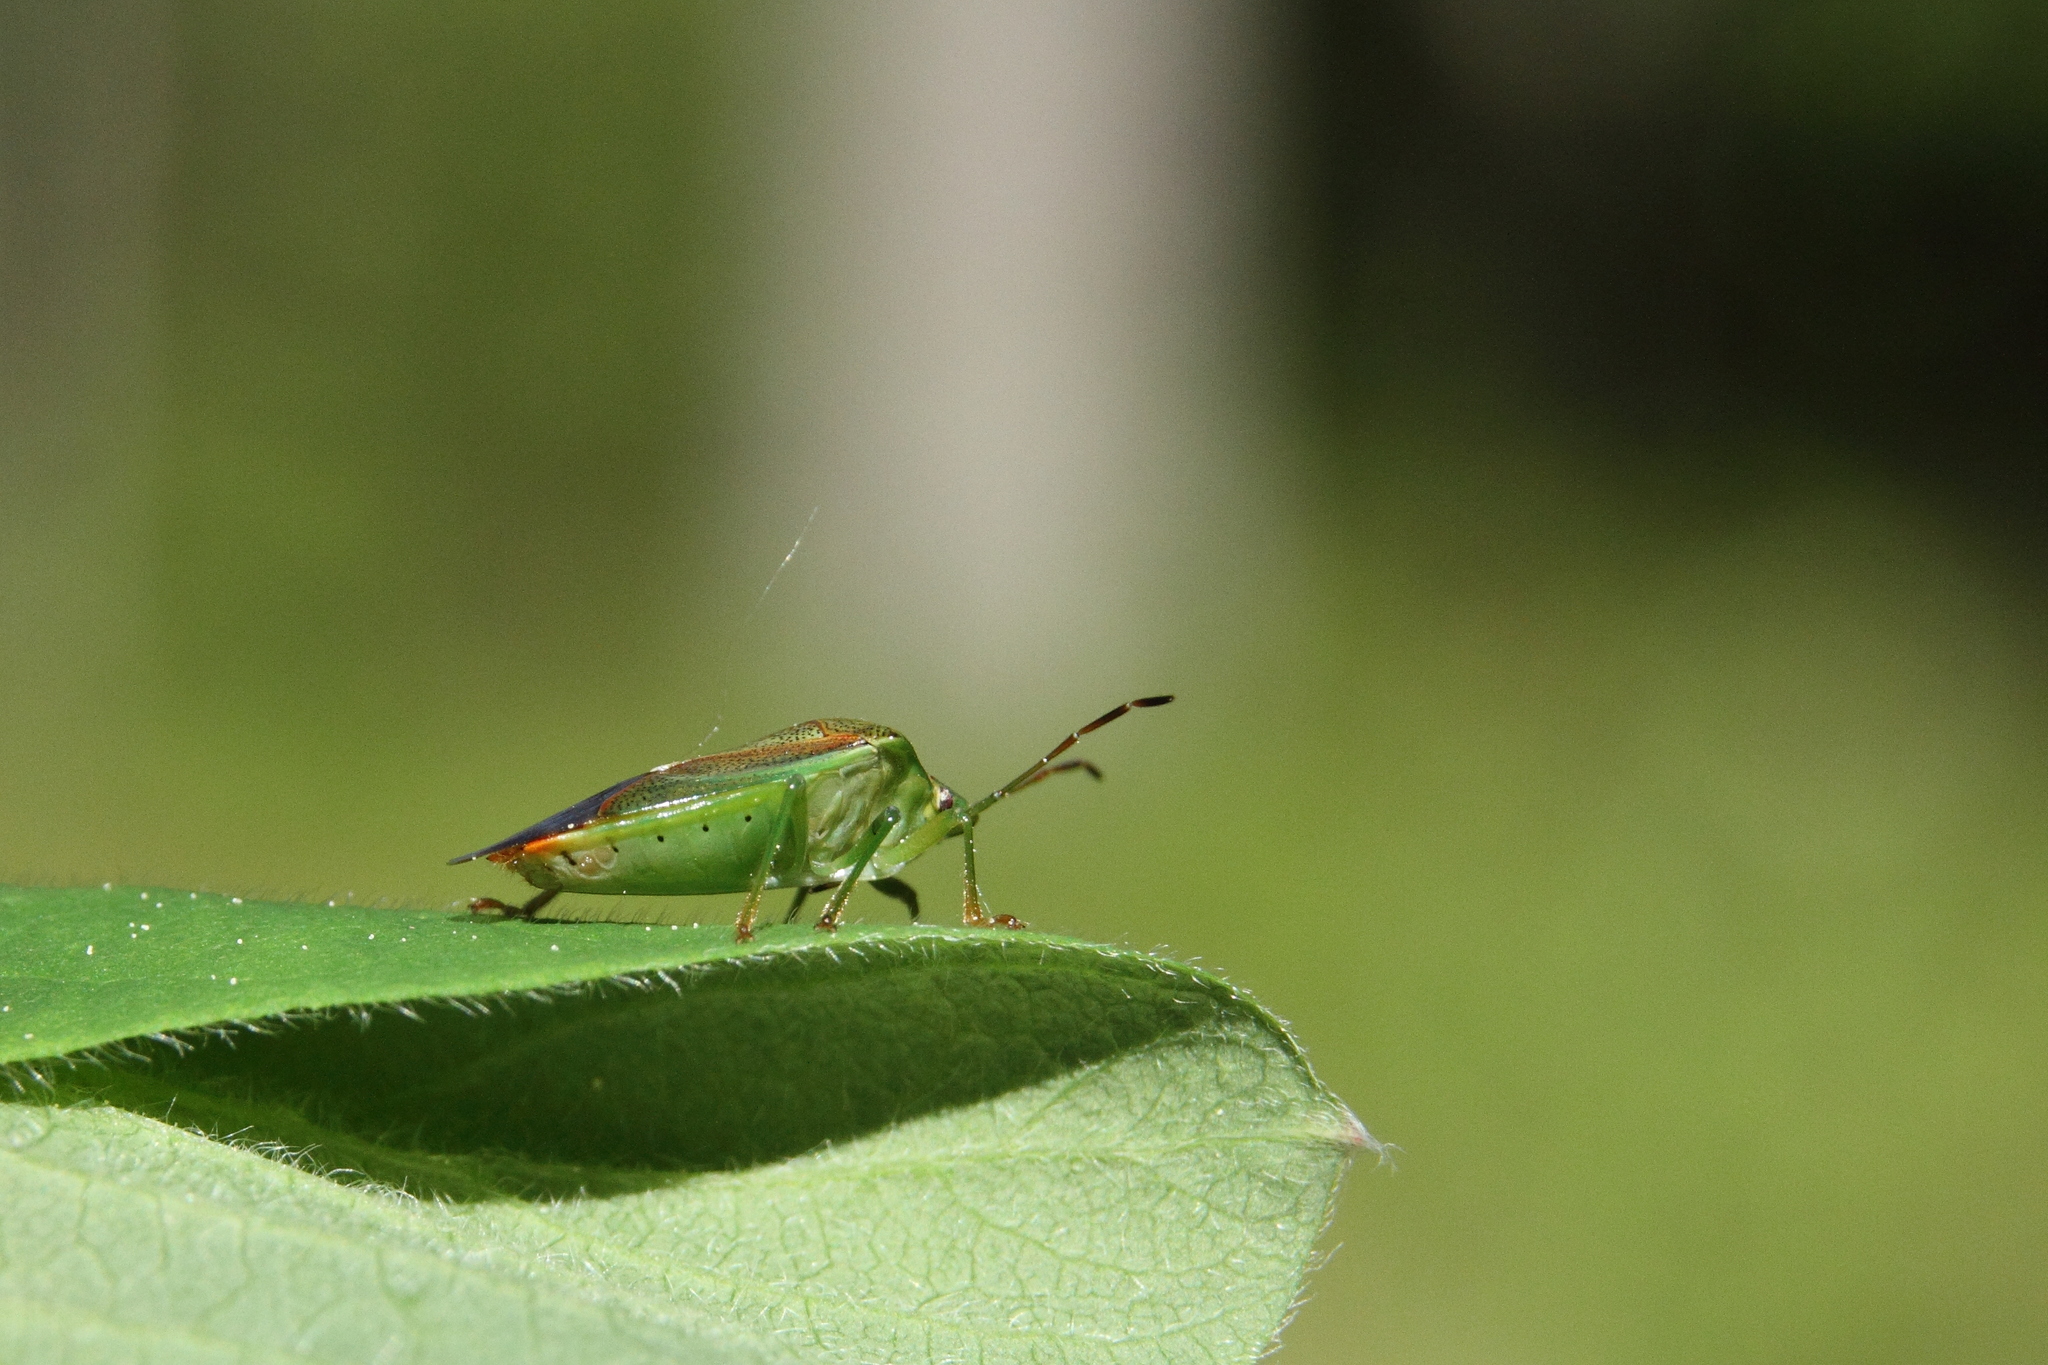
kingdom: Animalia
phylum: Arthropoda
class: Insecta
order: Hemiptera
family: Acanthosomatidae
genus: Elasmostethus
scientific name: Elasmostethus minor
